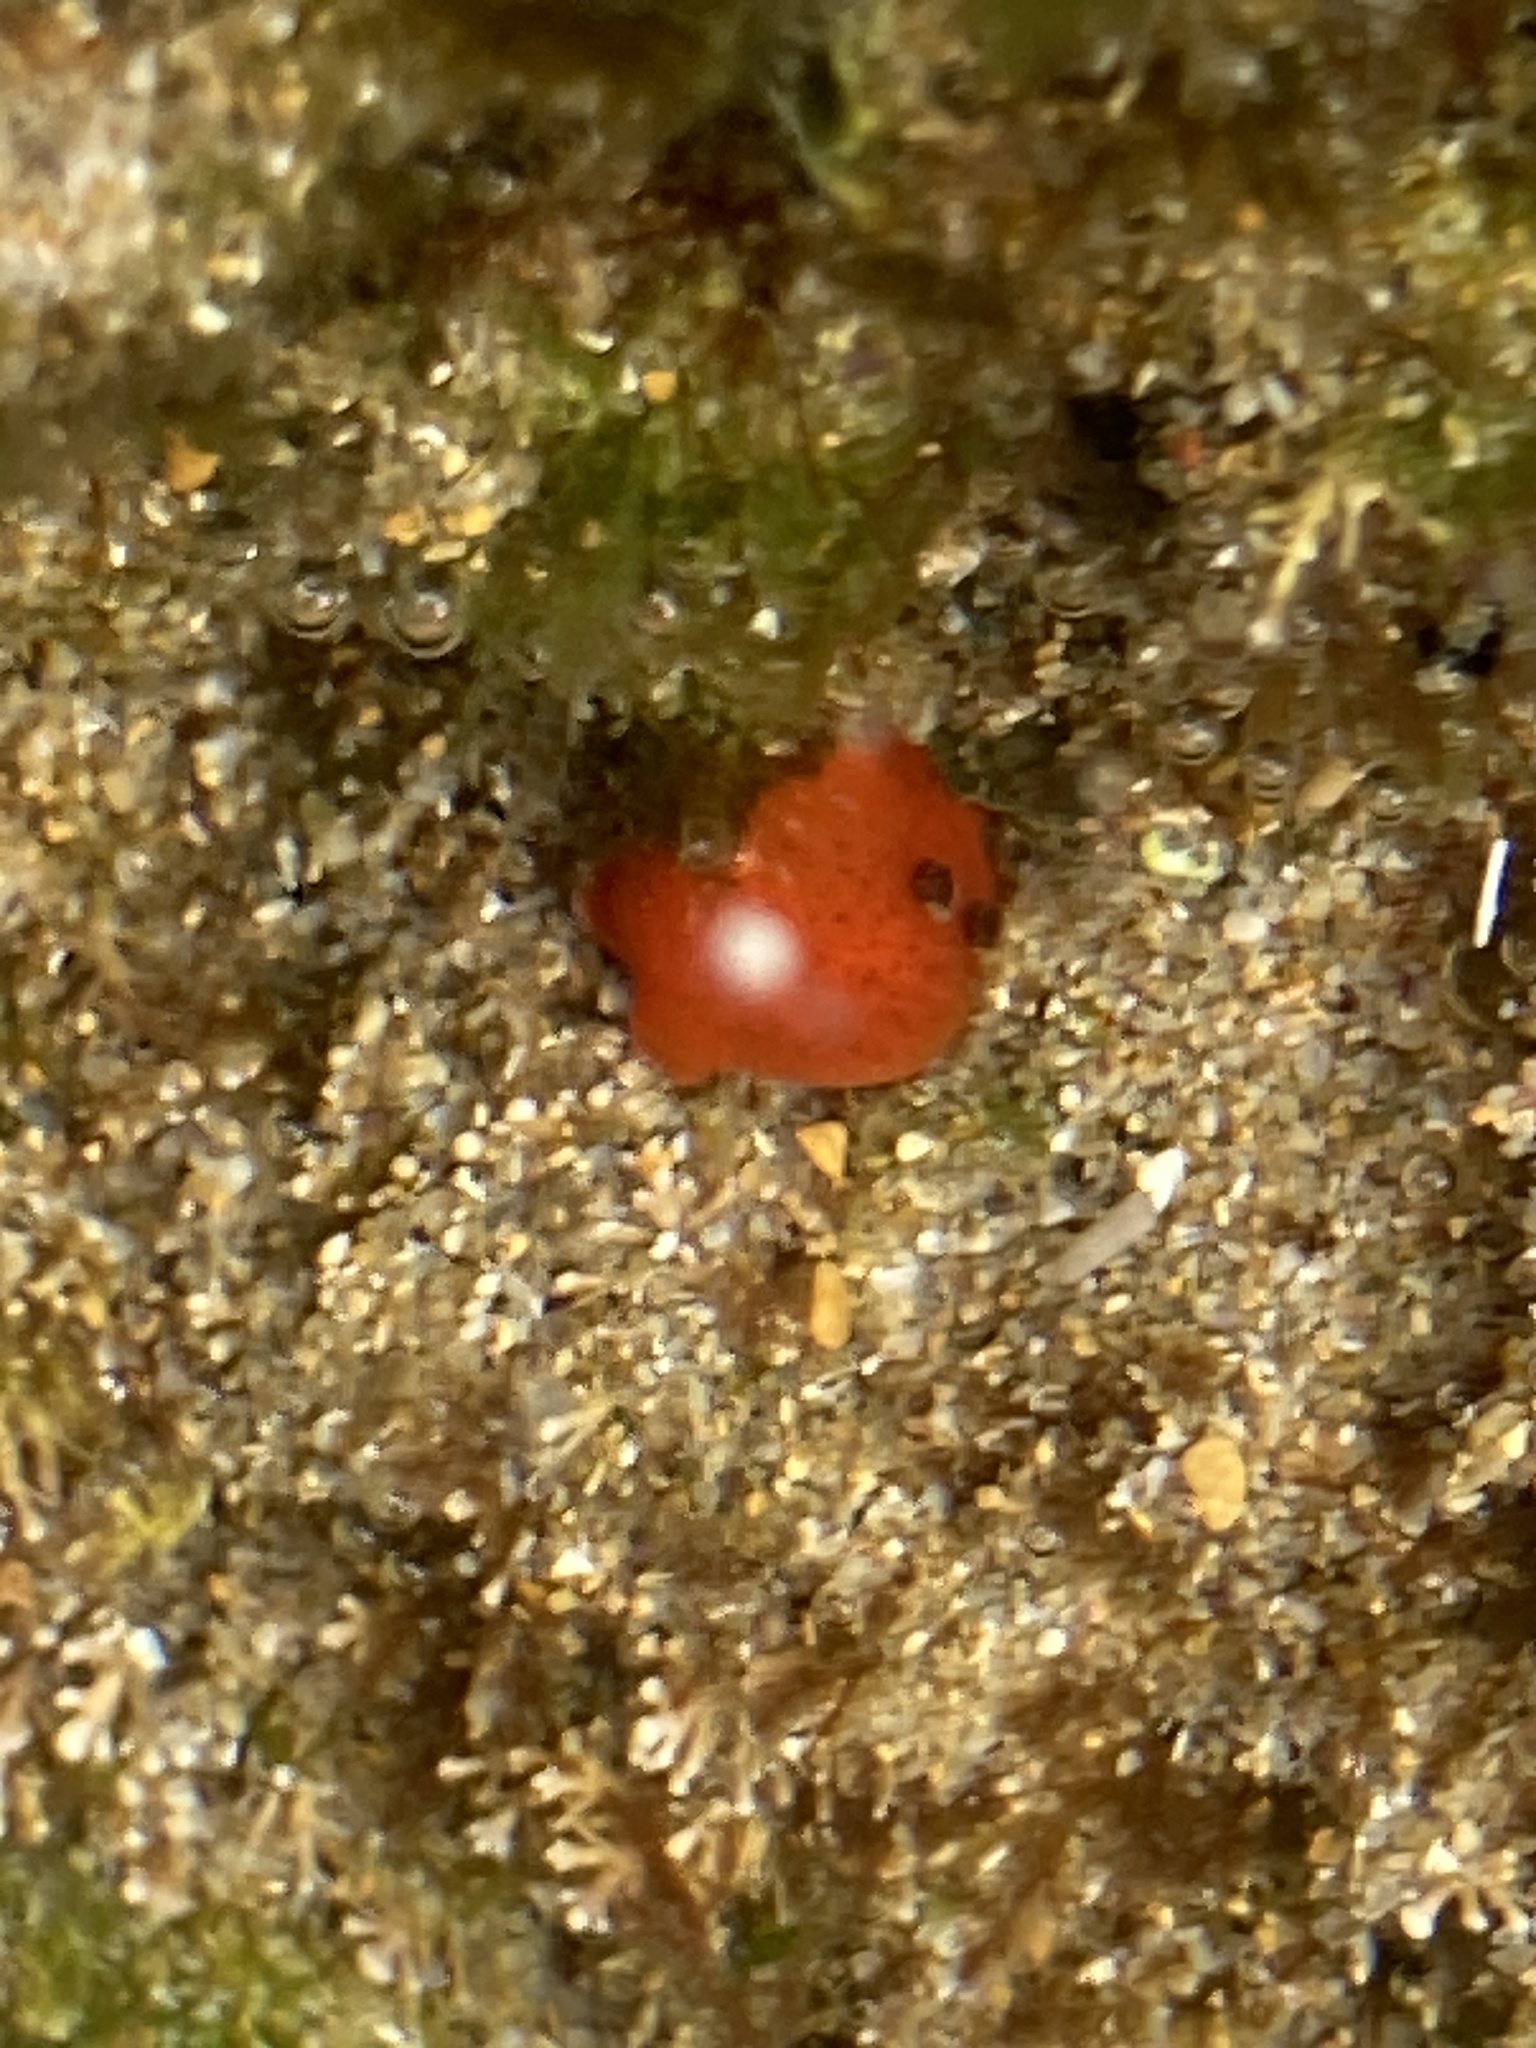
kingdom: Animalia
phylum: Mollusca
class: Gastropoda
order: Nudibranchia
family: Discodorididae
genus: Rostanga
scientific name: Rostanga arbutus
